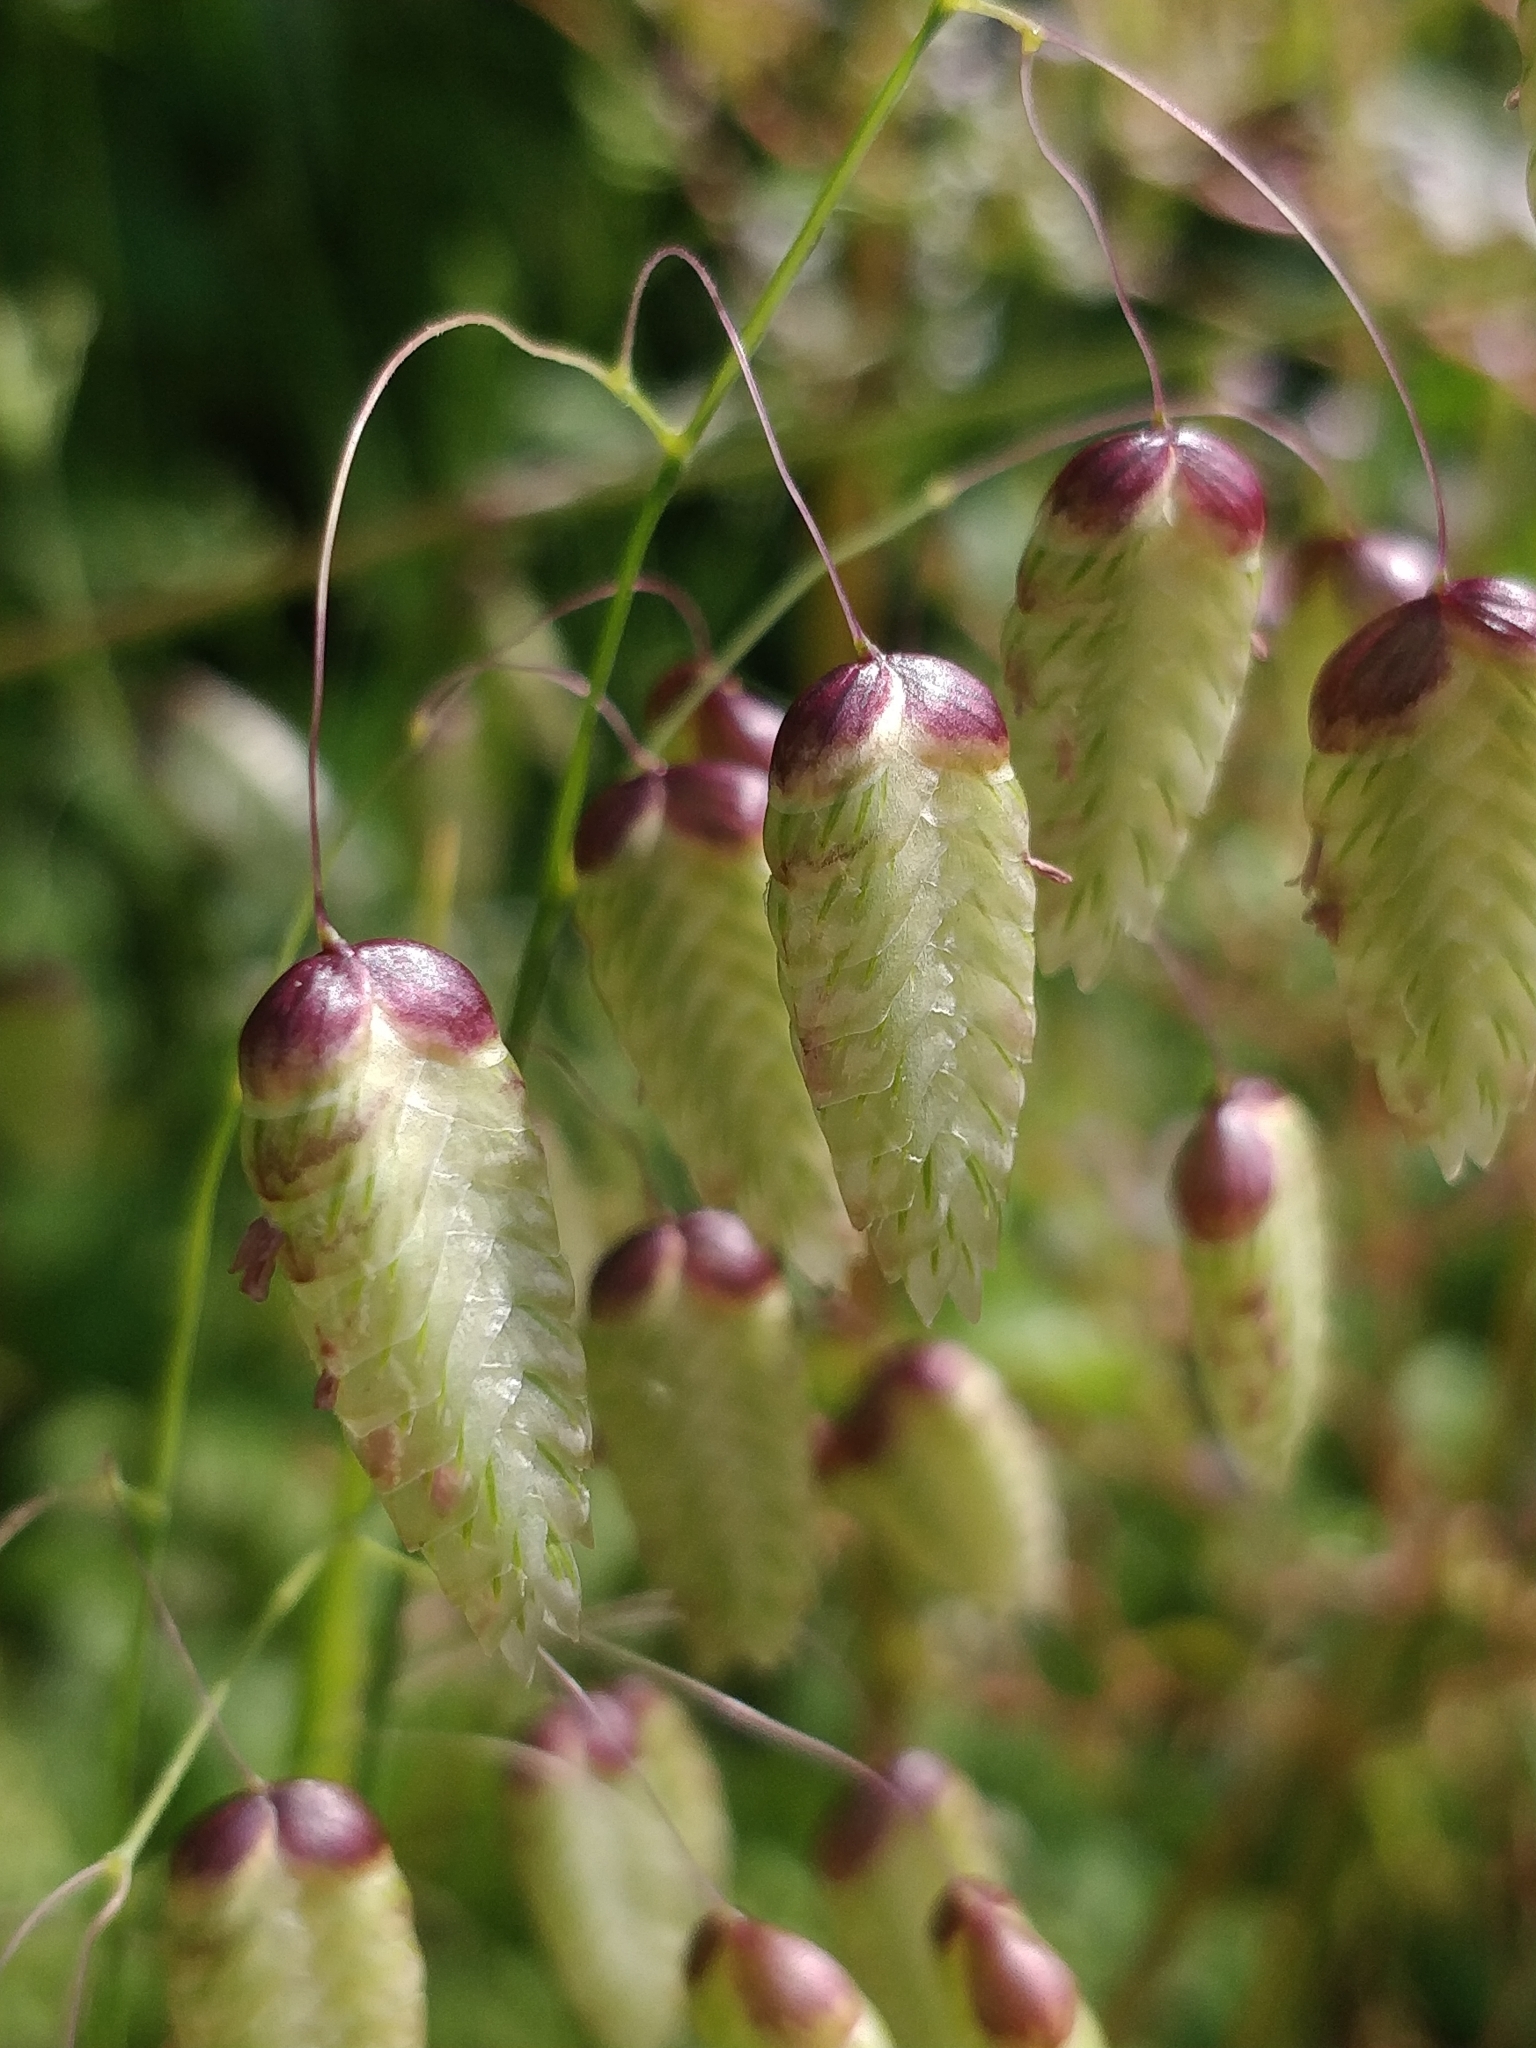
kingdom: Plantae
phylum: Tracheophyta
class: Liliopsida
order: Poales
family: Poaceae
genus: Briza
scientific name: Briza maxima
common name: Big quakinggrass
